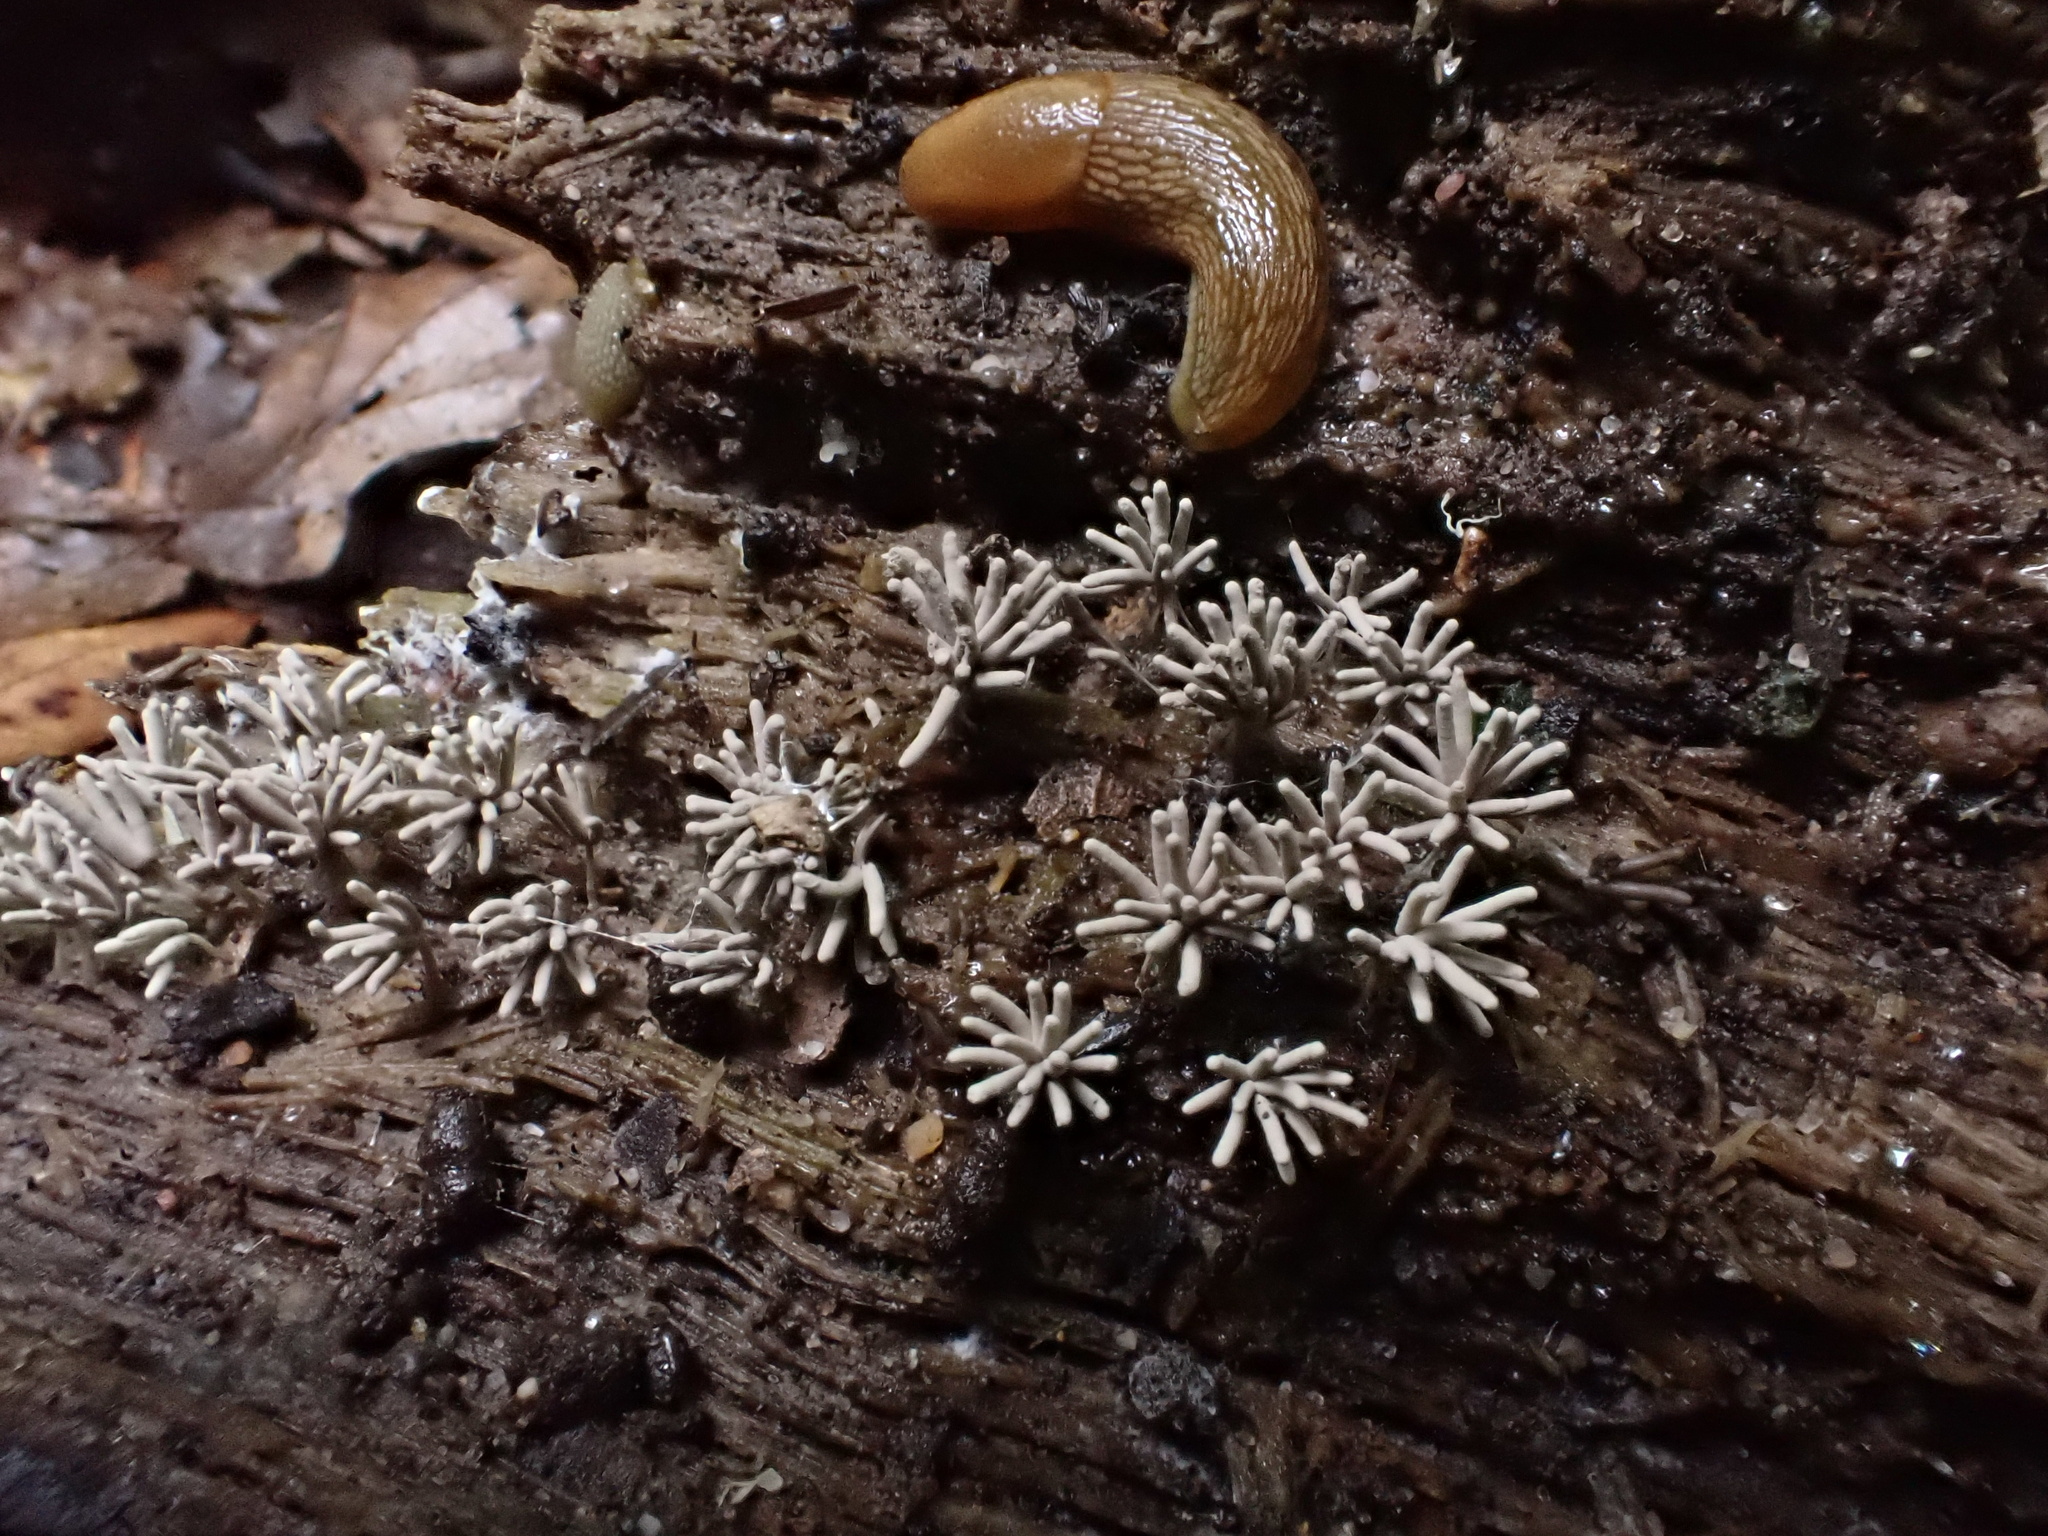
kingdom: Protozoa
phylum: Mycetozoa
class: Myxomycetes
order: Trichiales
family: Arcyriaceae
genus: Arcyria
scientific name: Arcyria cinerea
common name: White carnival candy slime mold
